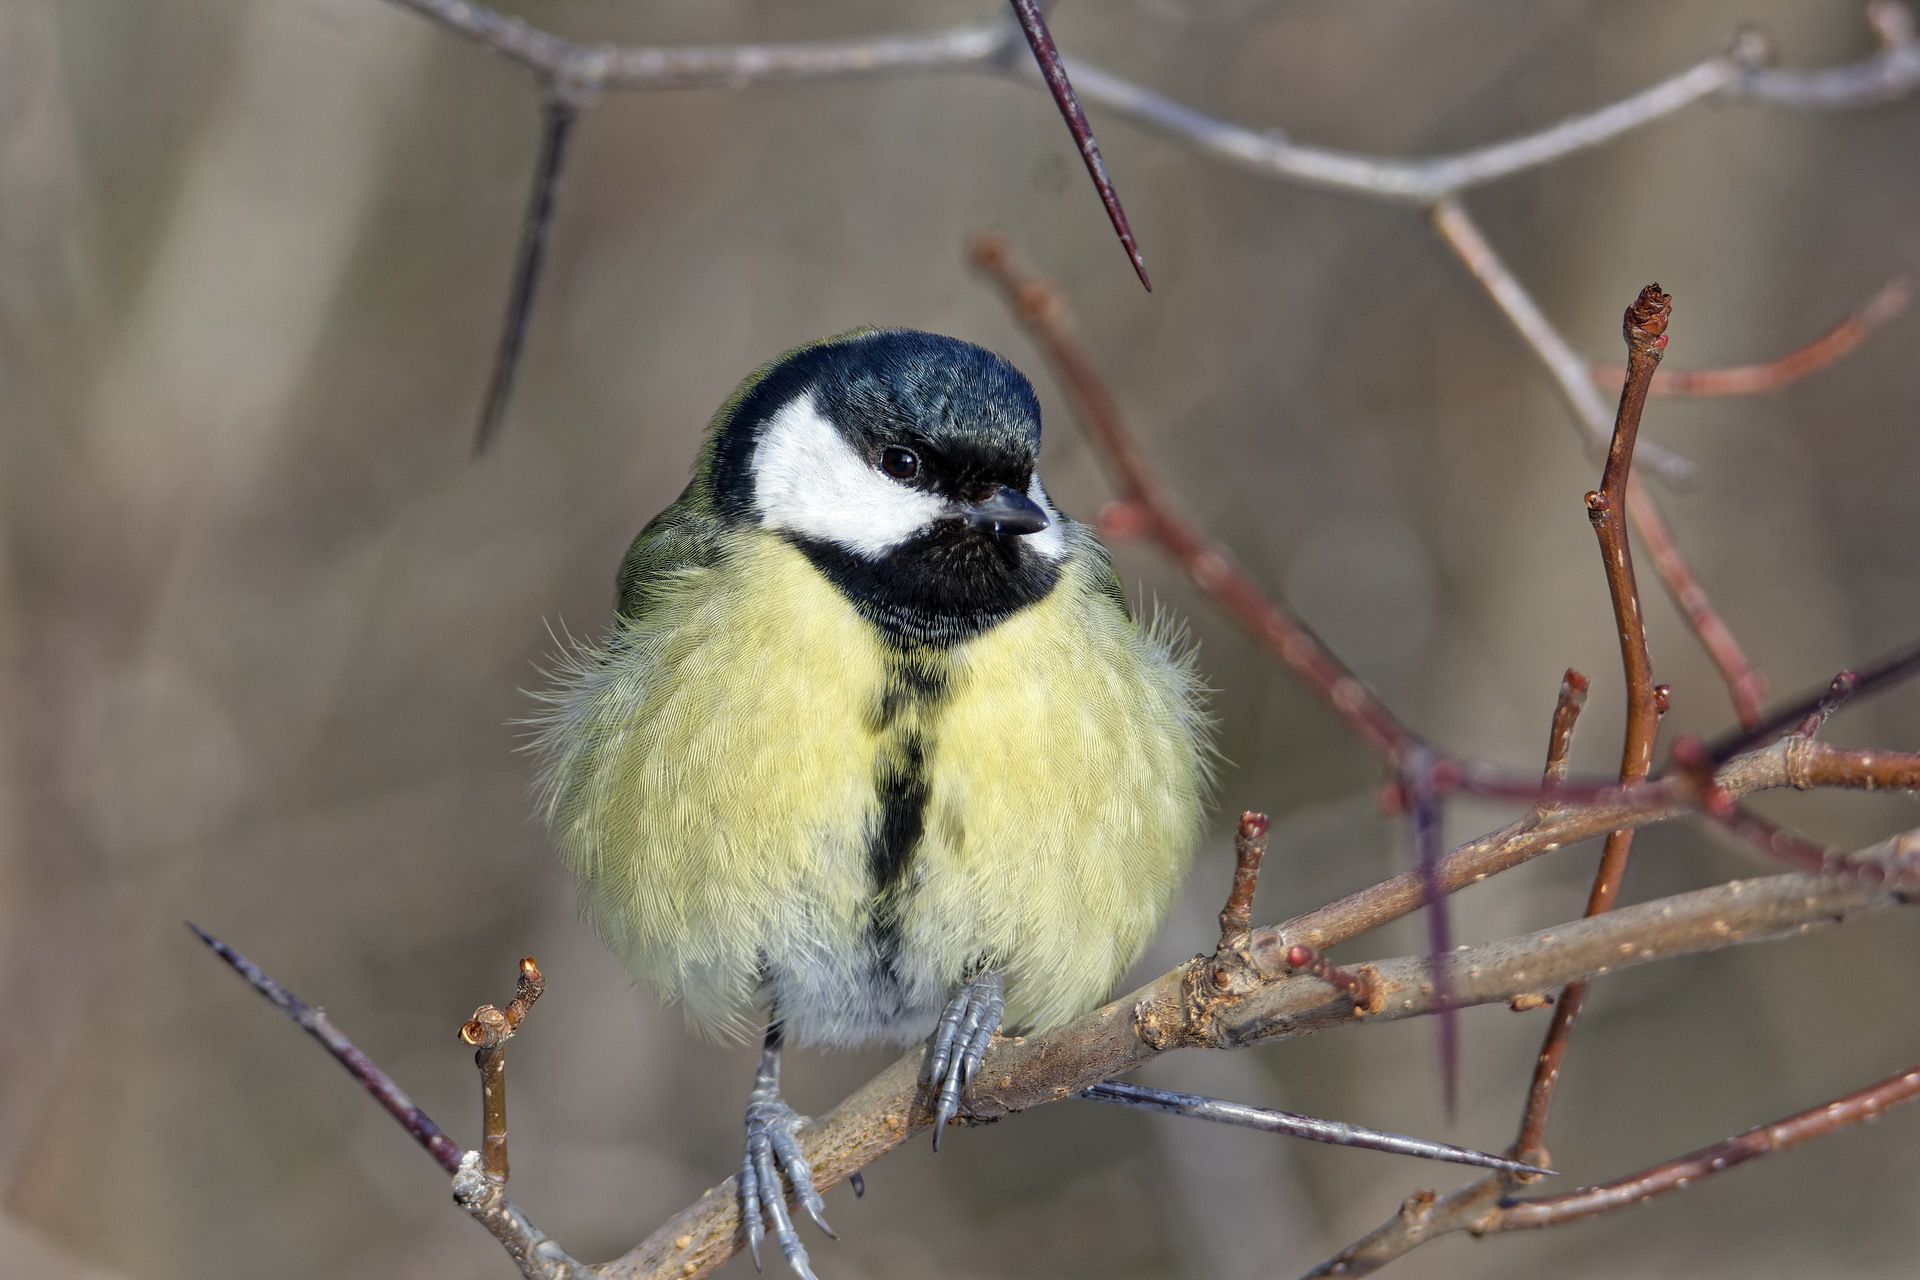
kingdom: Animalia
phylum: Chordata
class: Aves
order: Passeriformes
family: Paridae
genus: Parus
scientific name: Parus major
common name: Great tit
